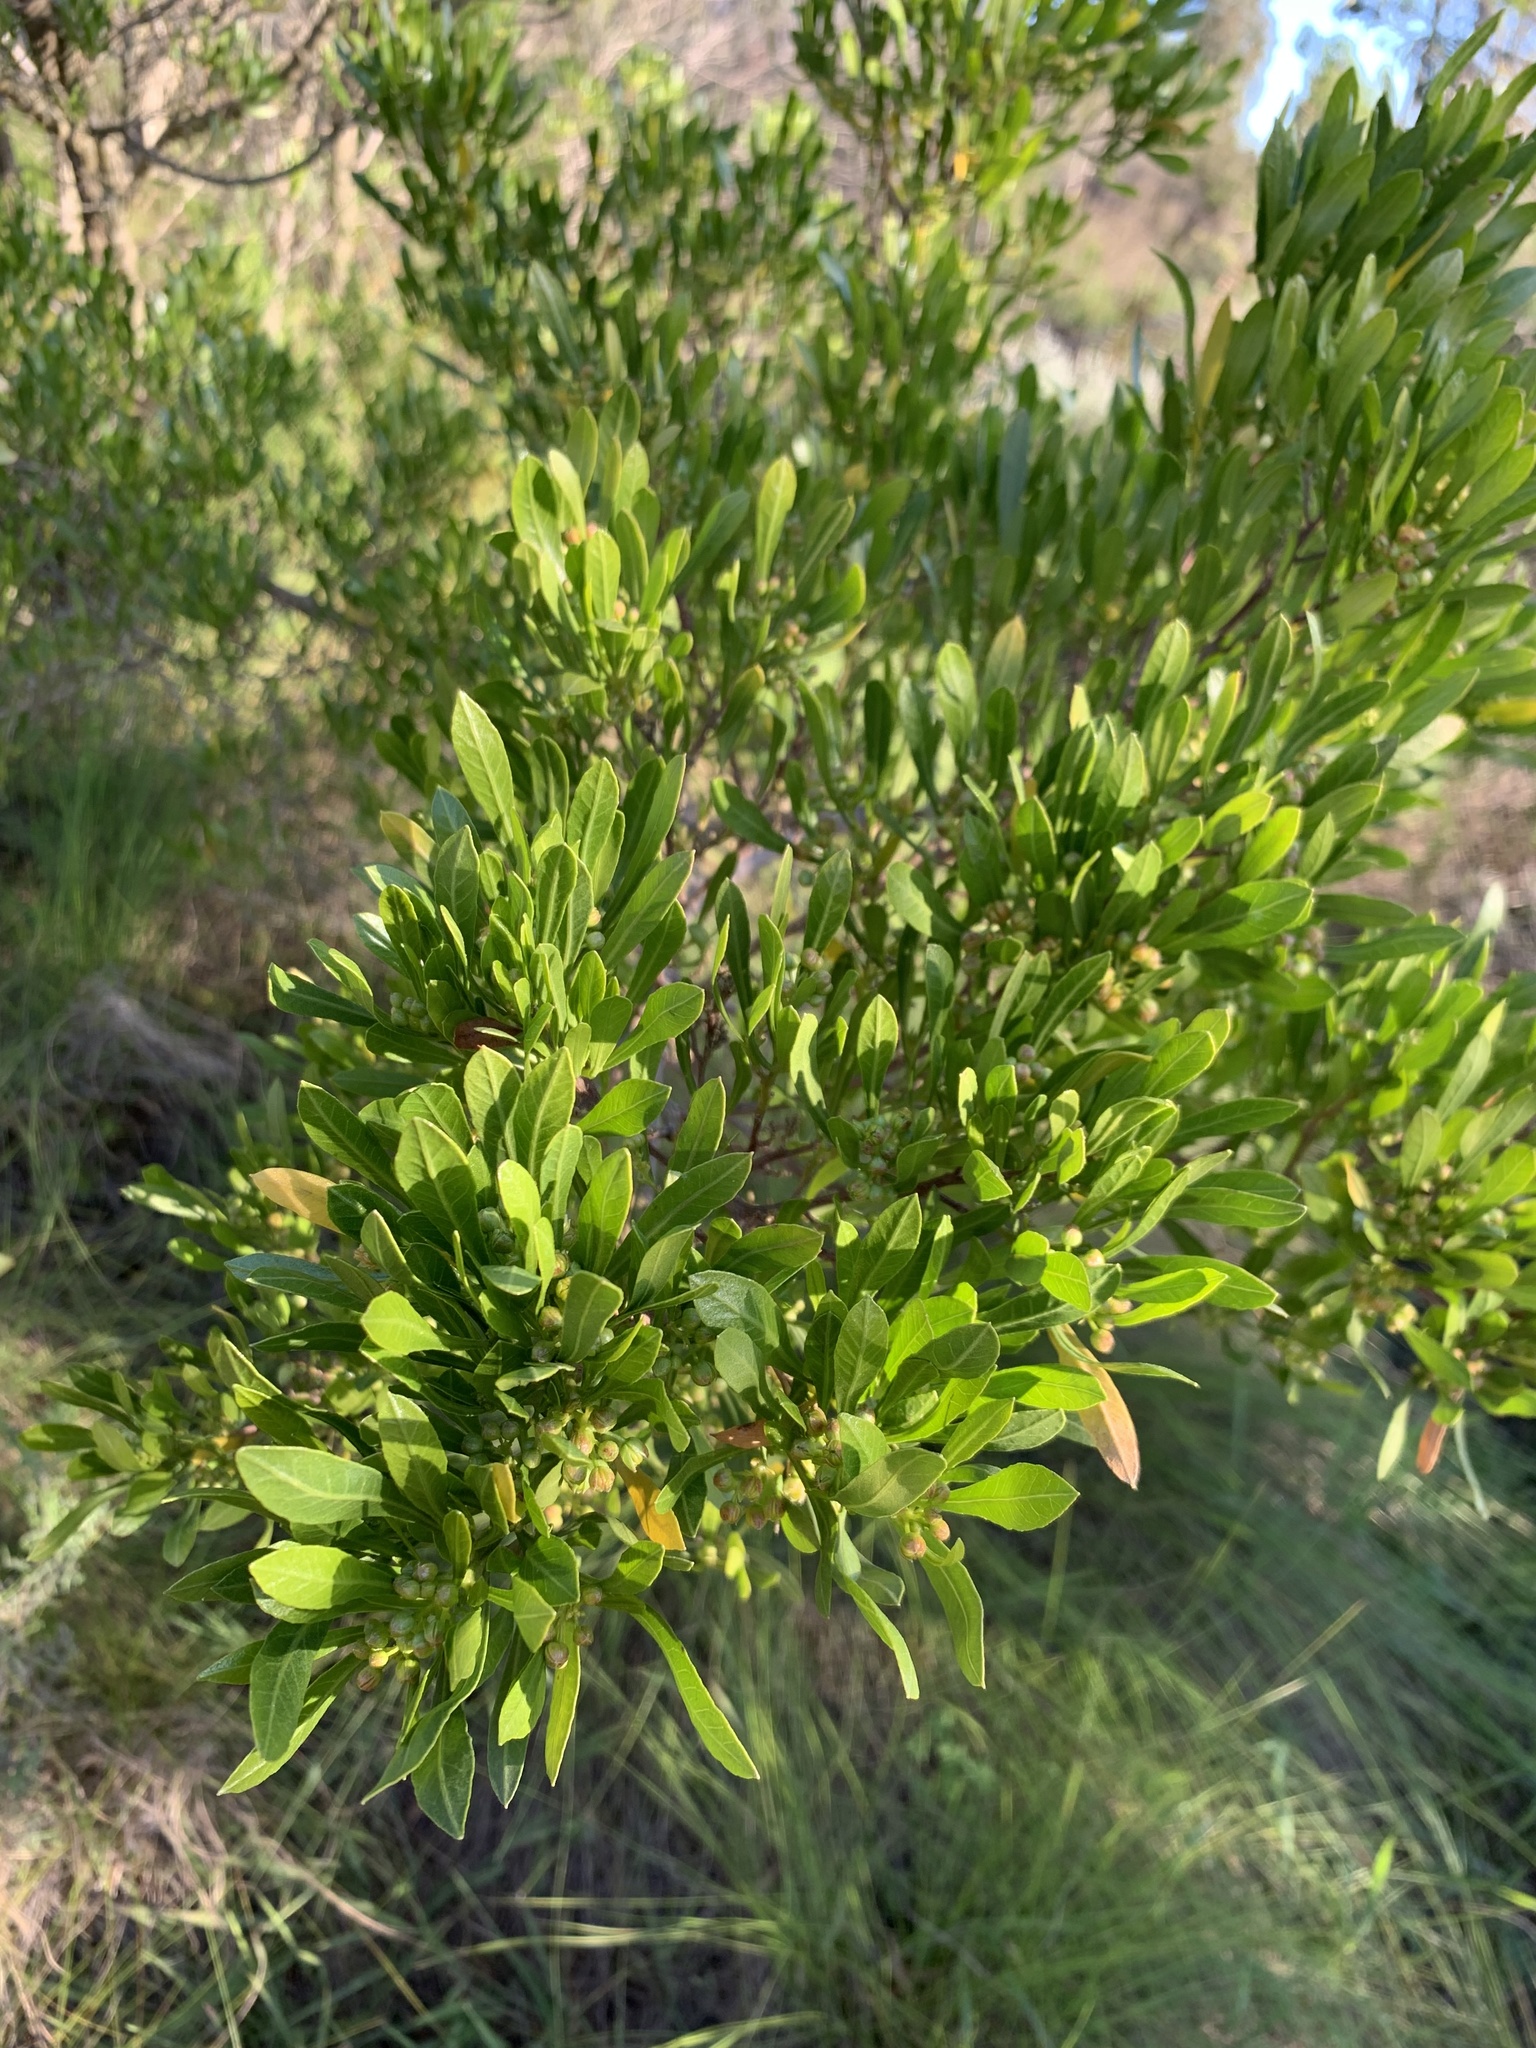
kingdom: Plantae
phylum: Tracheophyta
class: Magnoliopsida
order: Sapindales
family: Sapindaceae
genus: Dodonaea
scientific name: Dodonaea viscosa
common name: Hopbush
